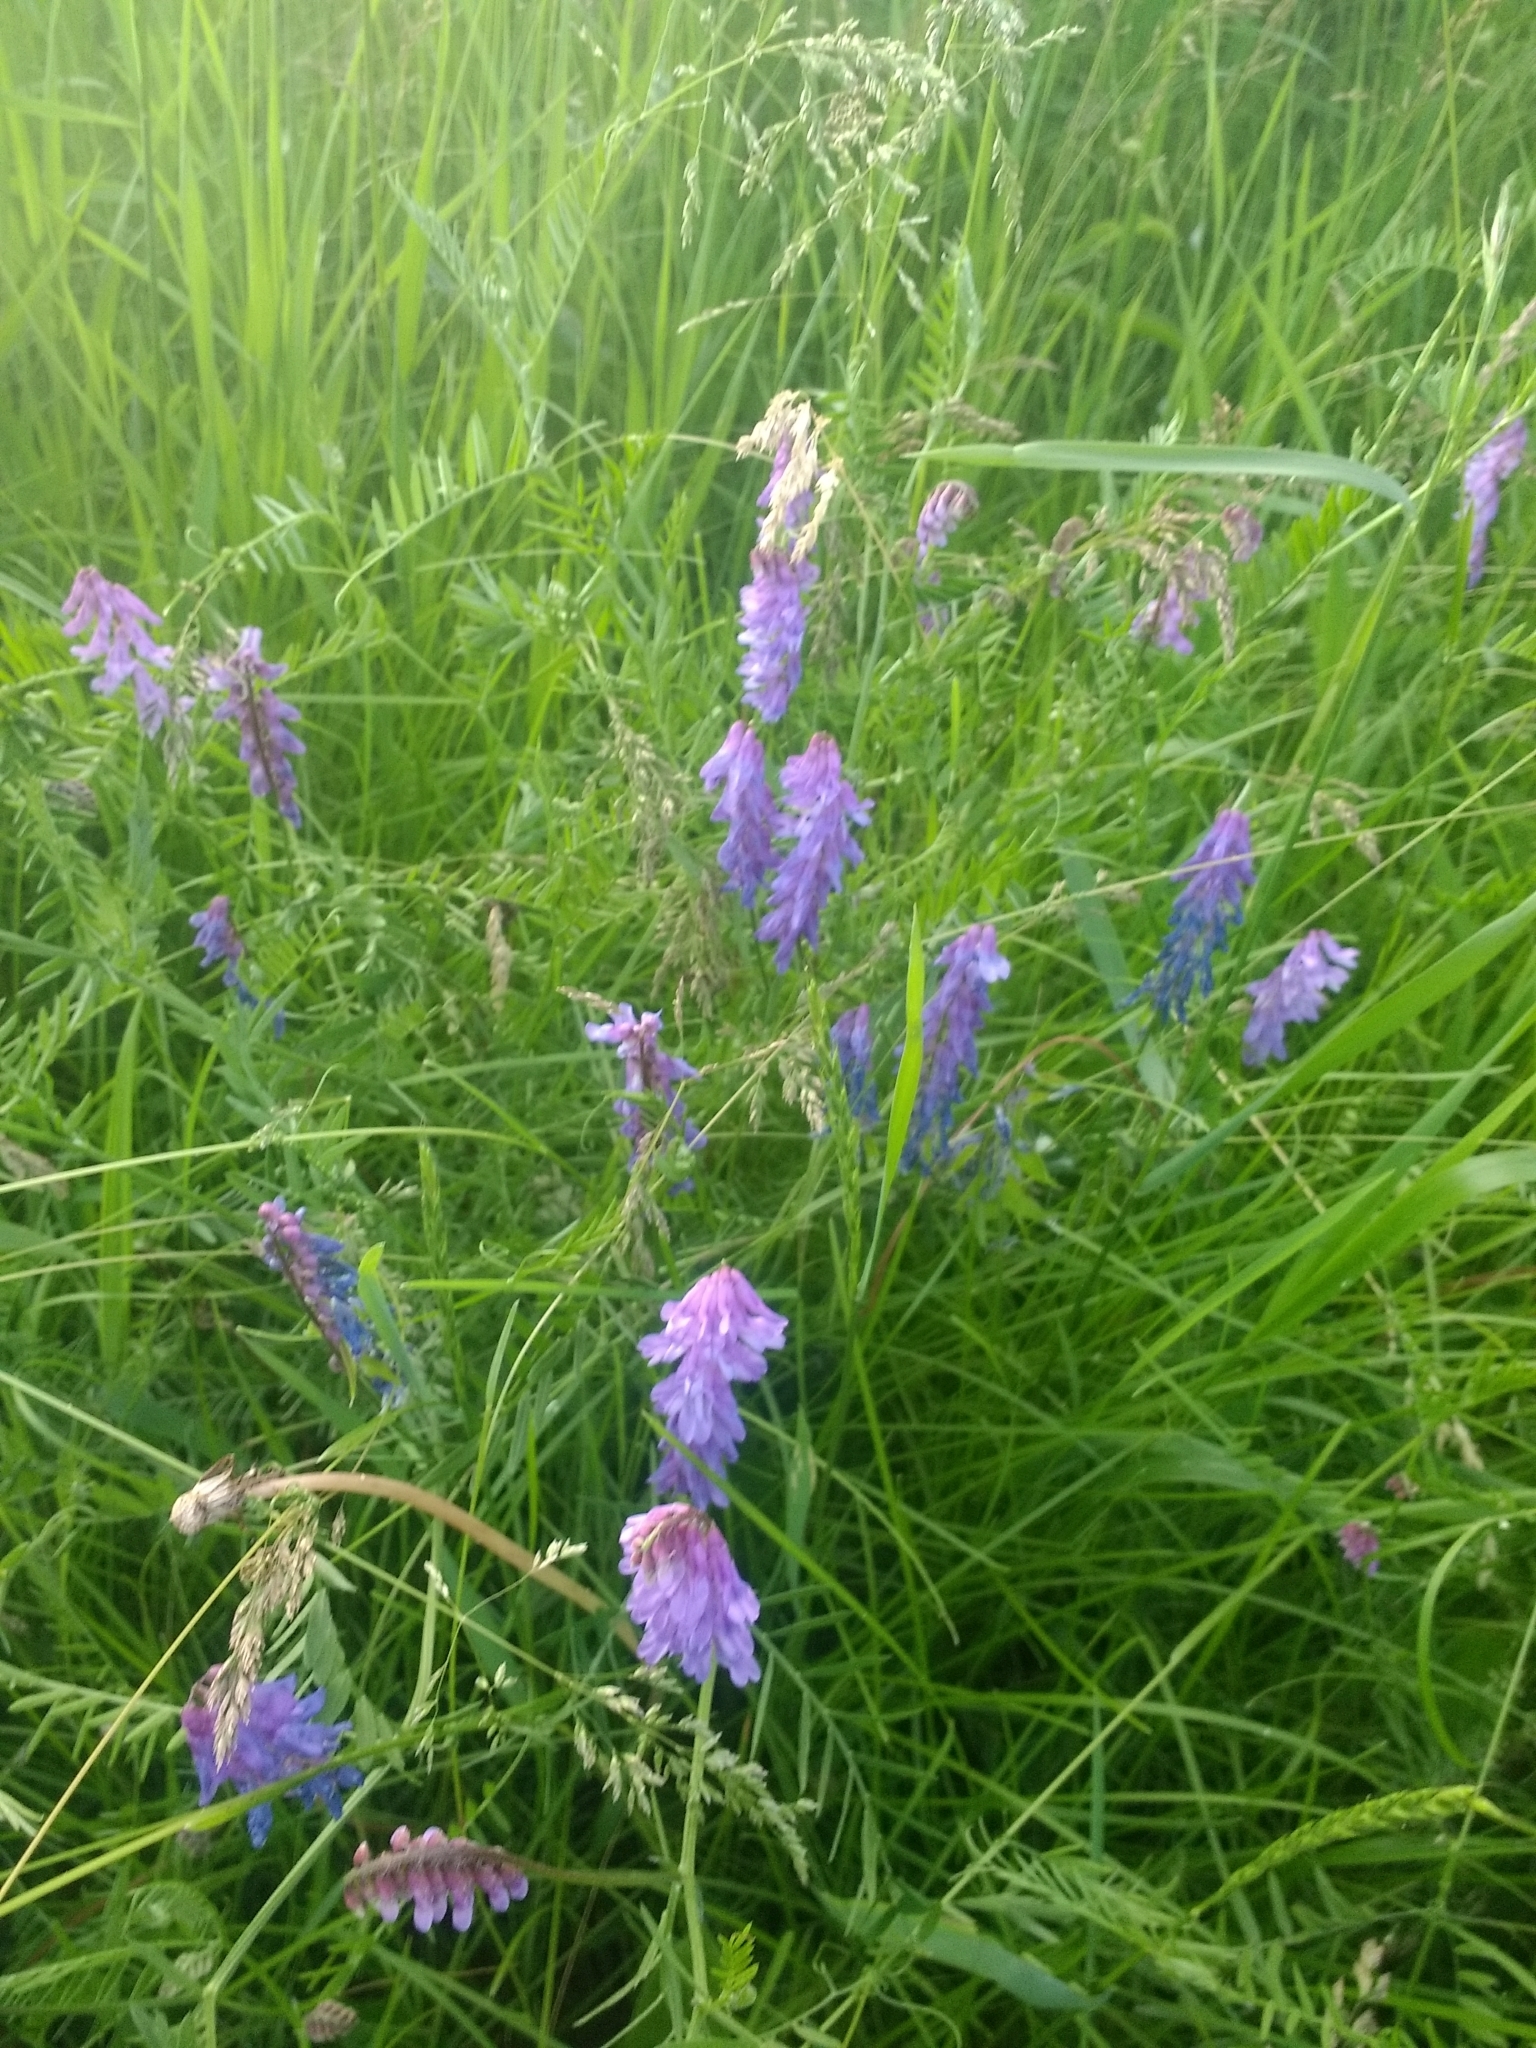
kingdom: Plantae
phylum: Tracheophyta
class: Magnoliopsida
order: Fabales
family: Fabaceae
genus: Vicia
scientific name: Vicia cracca
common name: Bird vetch
